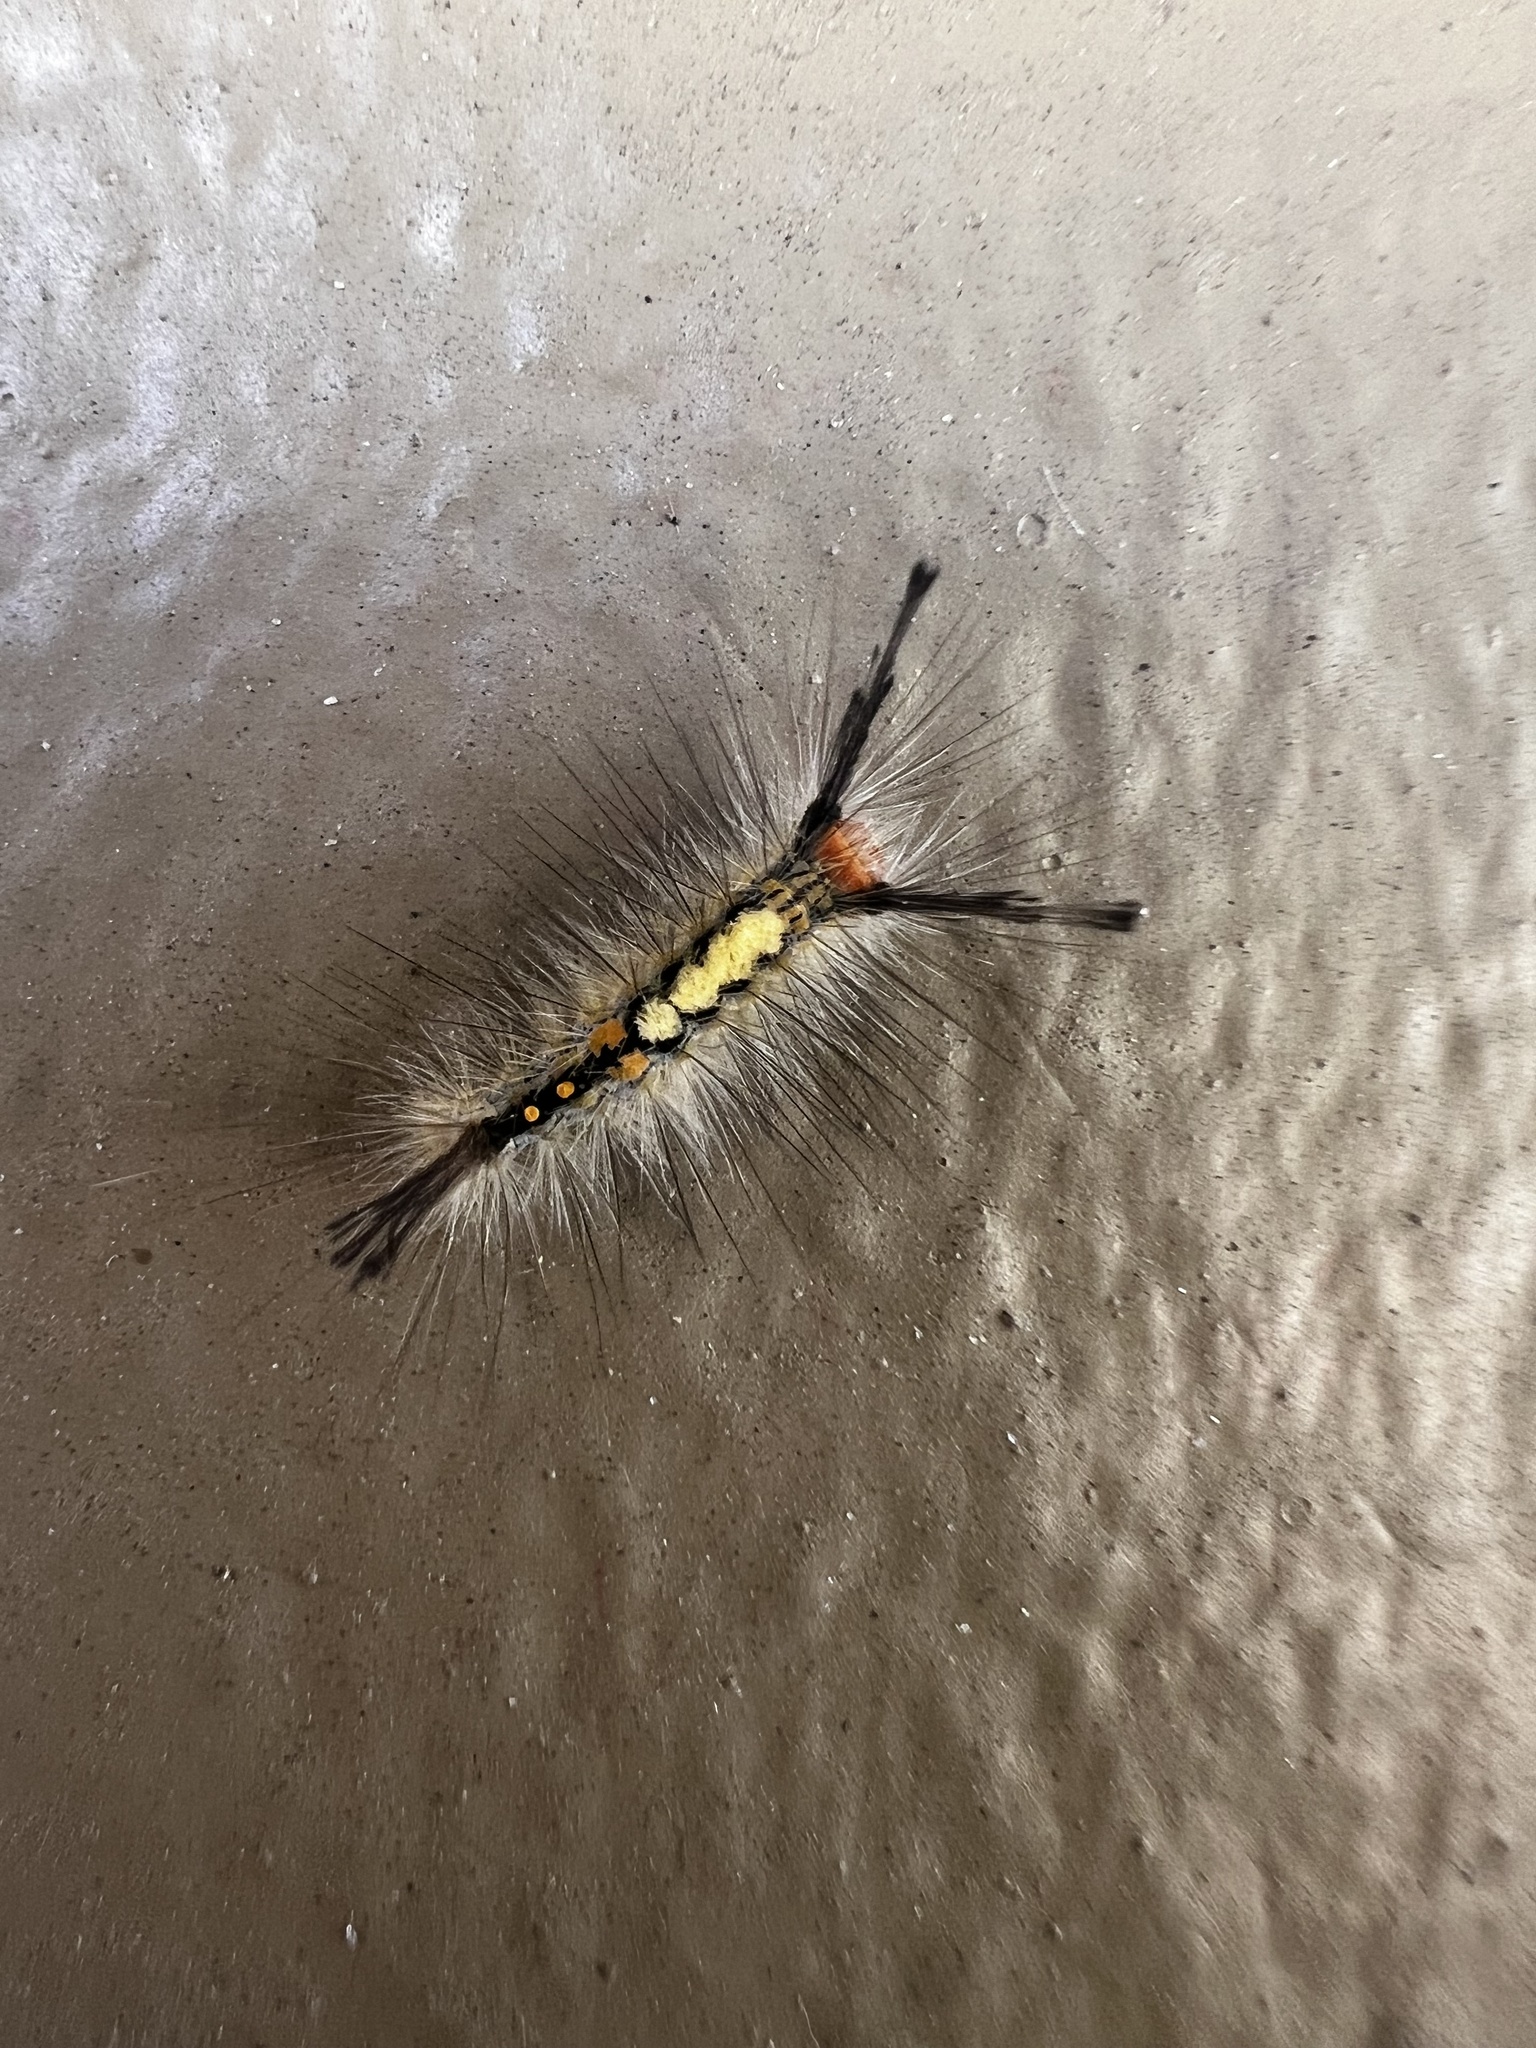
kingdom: Animalia
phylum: Arthropoda
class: Insecta
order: Lepidoptera
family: Erebidae
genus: Orgyia
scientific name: Orgyia detrita
